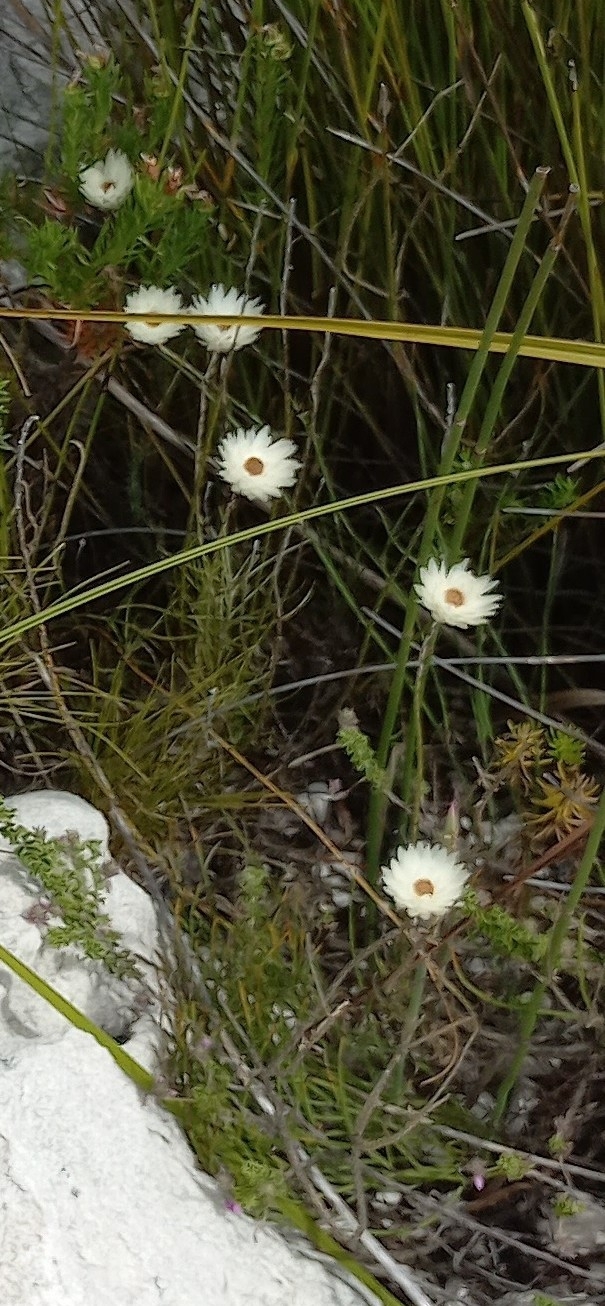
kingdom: Plantae
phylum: Tracheophyta
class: Magnoliopsida
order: Asterales
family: Asteraceae
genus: Edmondia
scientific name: Edmondia sesamoides
